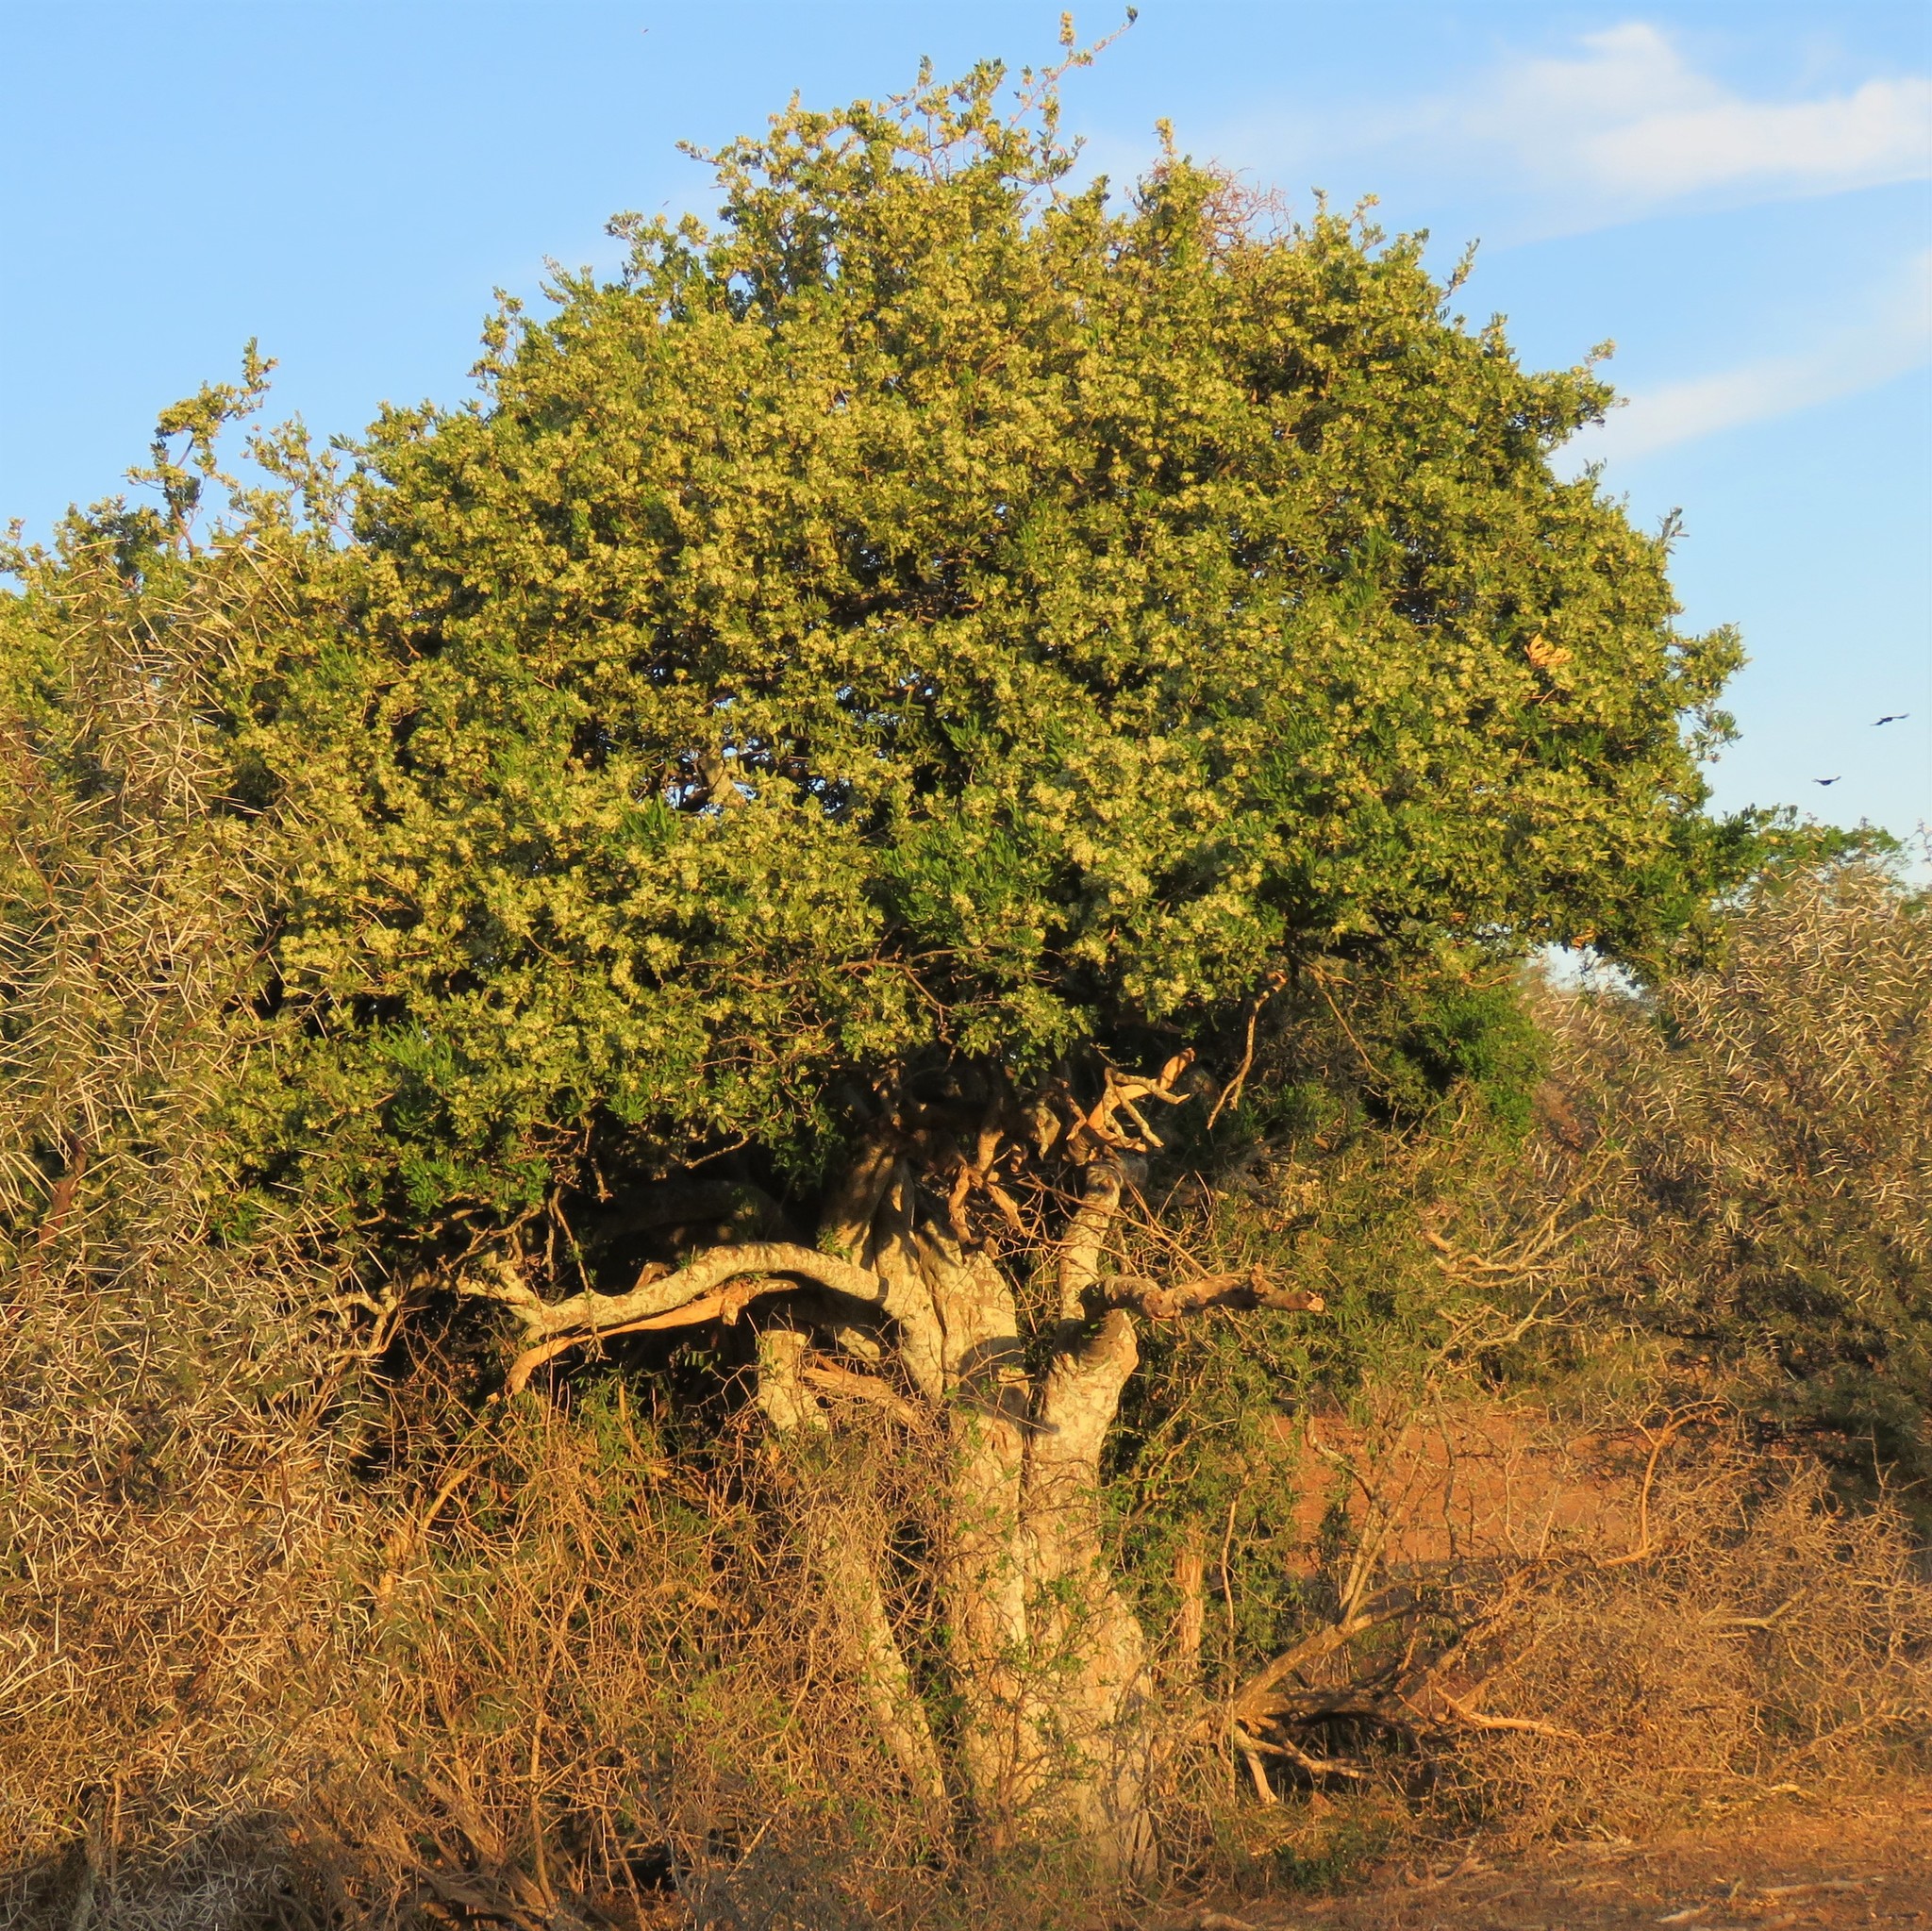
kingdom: Plantae
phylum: Tracheophyta
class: Magnoliopsida
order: Brassicales
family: Capparaceae
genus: Boscia
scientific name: Boscia oleoides
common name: Karoo shepherd tree
